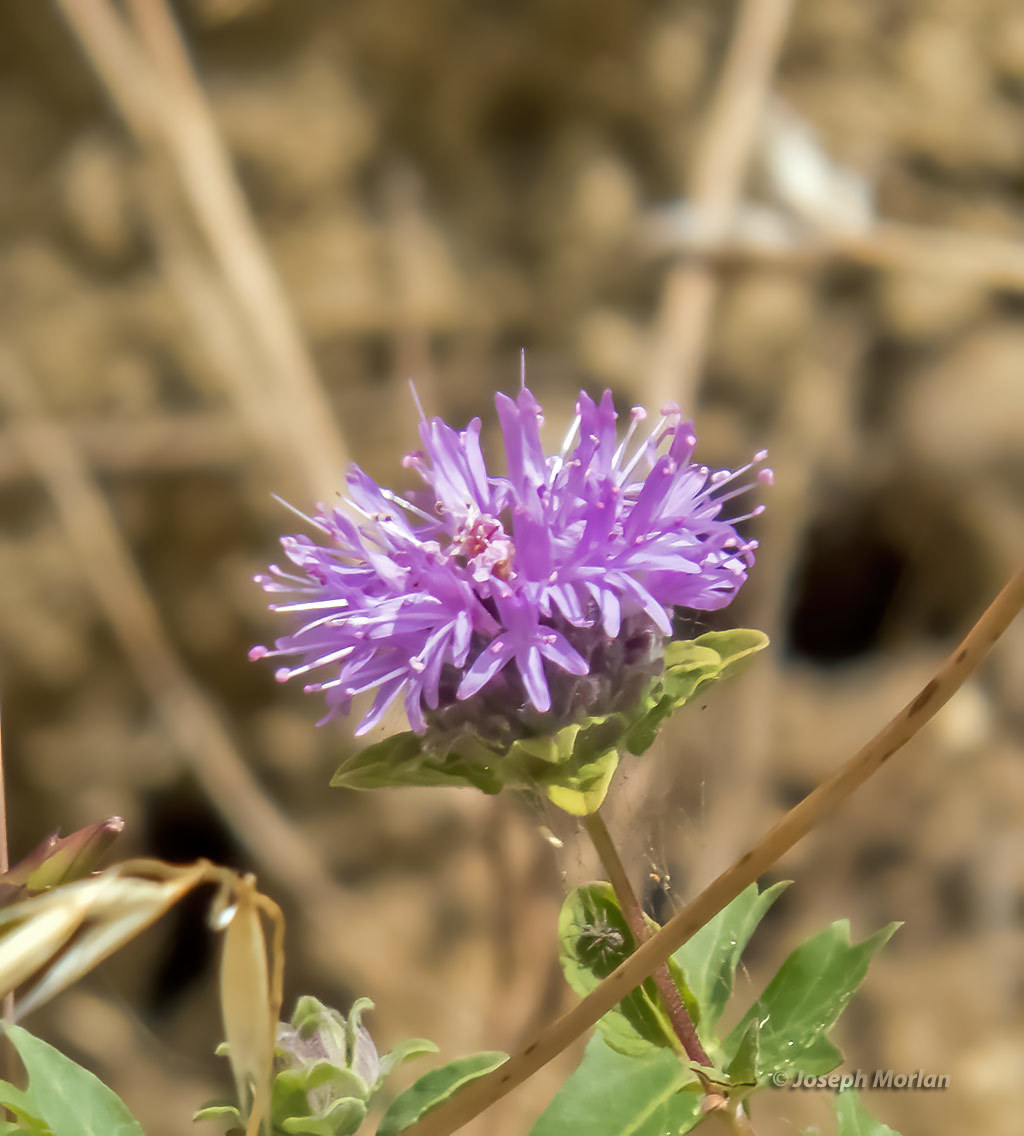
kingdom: Plantae
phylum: Tracheophyta
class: Magnoliopsida
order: Lamiales
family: Lamiaceae
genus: Monardella
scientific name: Monardella odoratissima
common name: Pacific monardella
